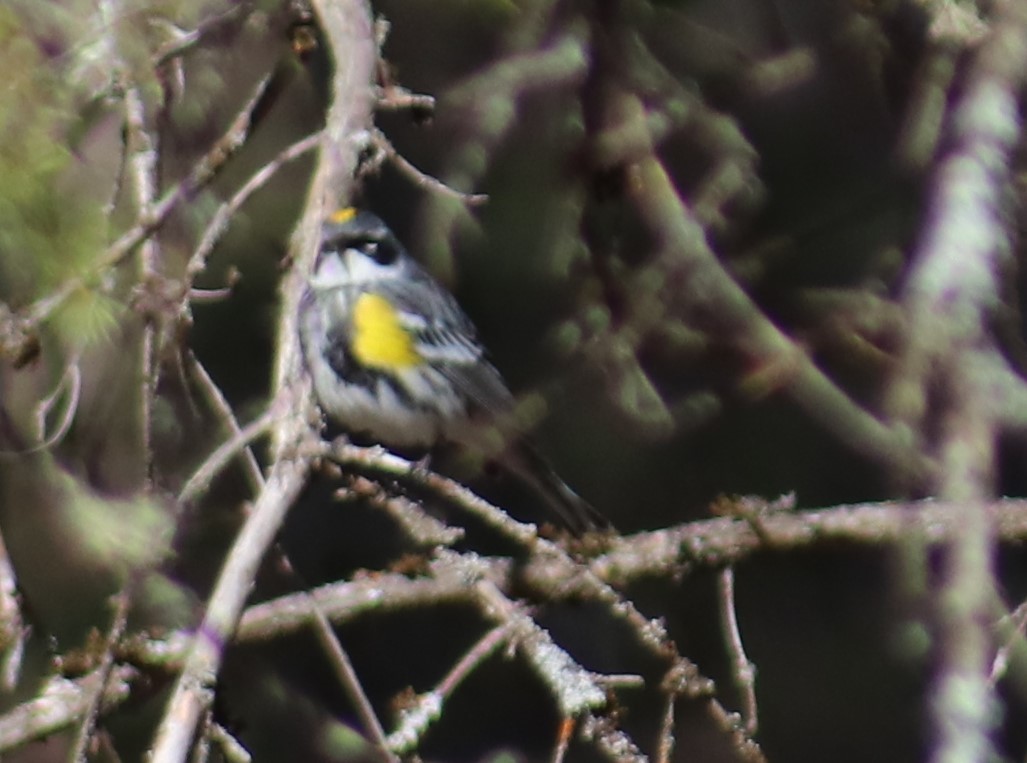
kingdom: Animalia
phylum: Chordata
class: Aves
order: Passeriformes
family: Parulidae
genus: Setophaga
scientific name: Setophaga coronata
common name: Myrtle warbler
